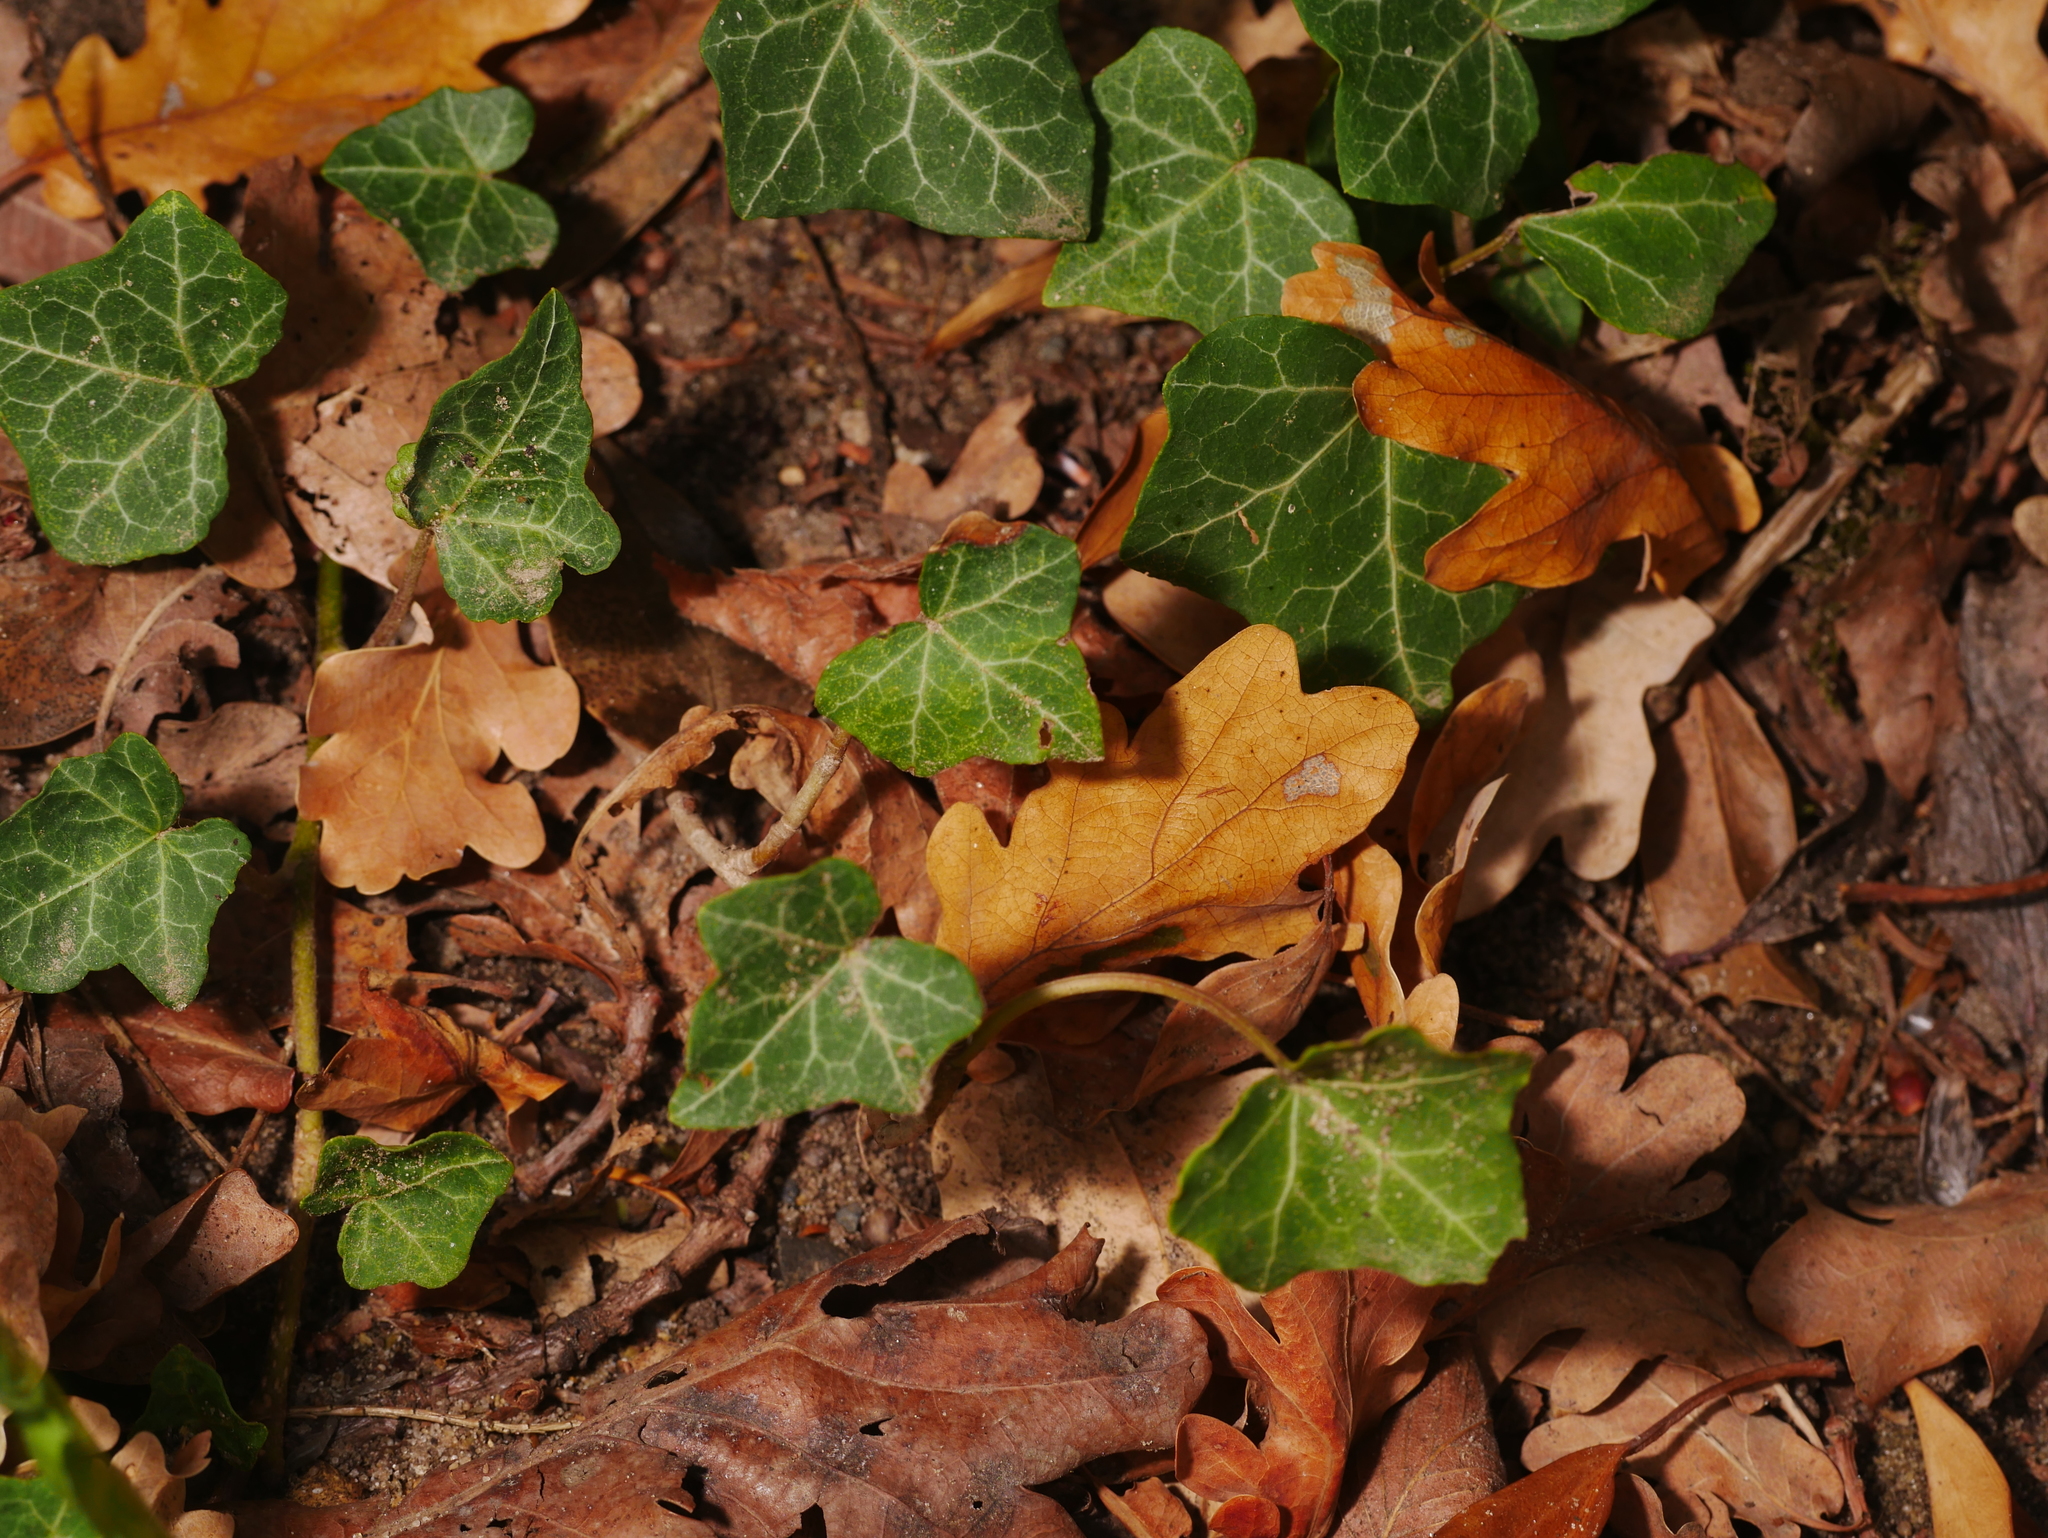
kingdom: Plantae
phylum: Tracheophyta
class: Magnoliopsida
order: Apiales
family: Araliaceae
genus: Hedera
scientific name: Hedera helix
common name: Ivy
